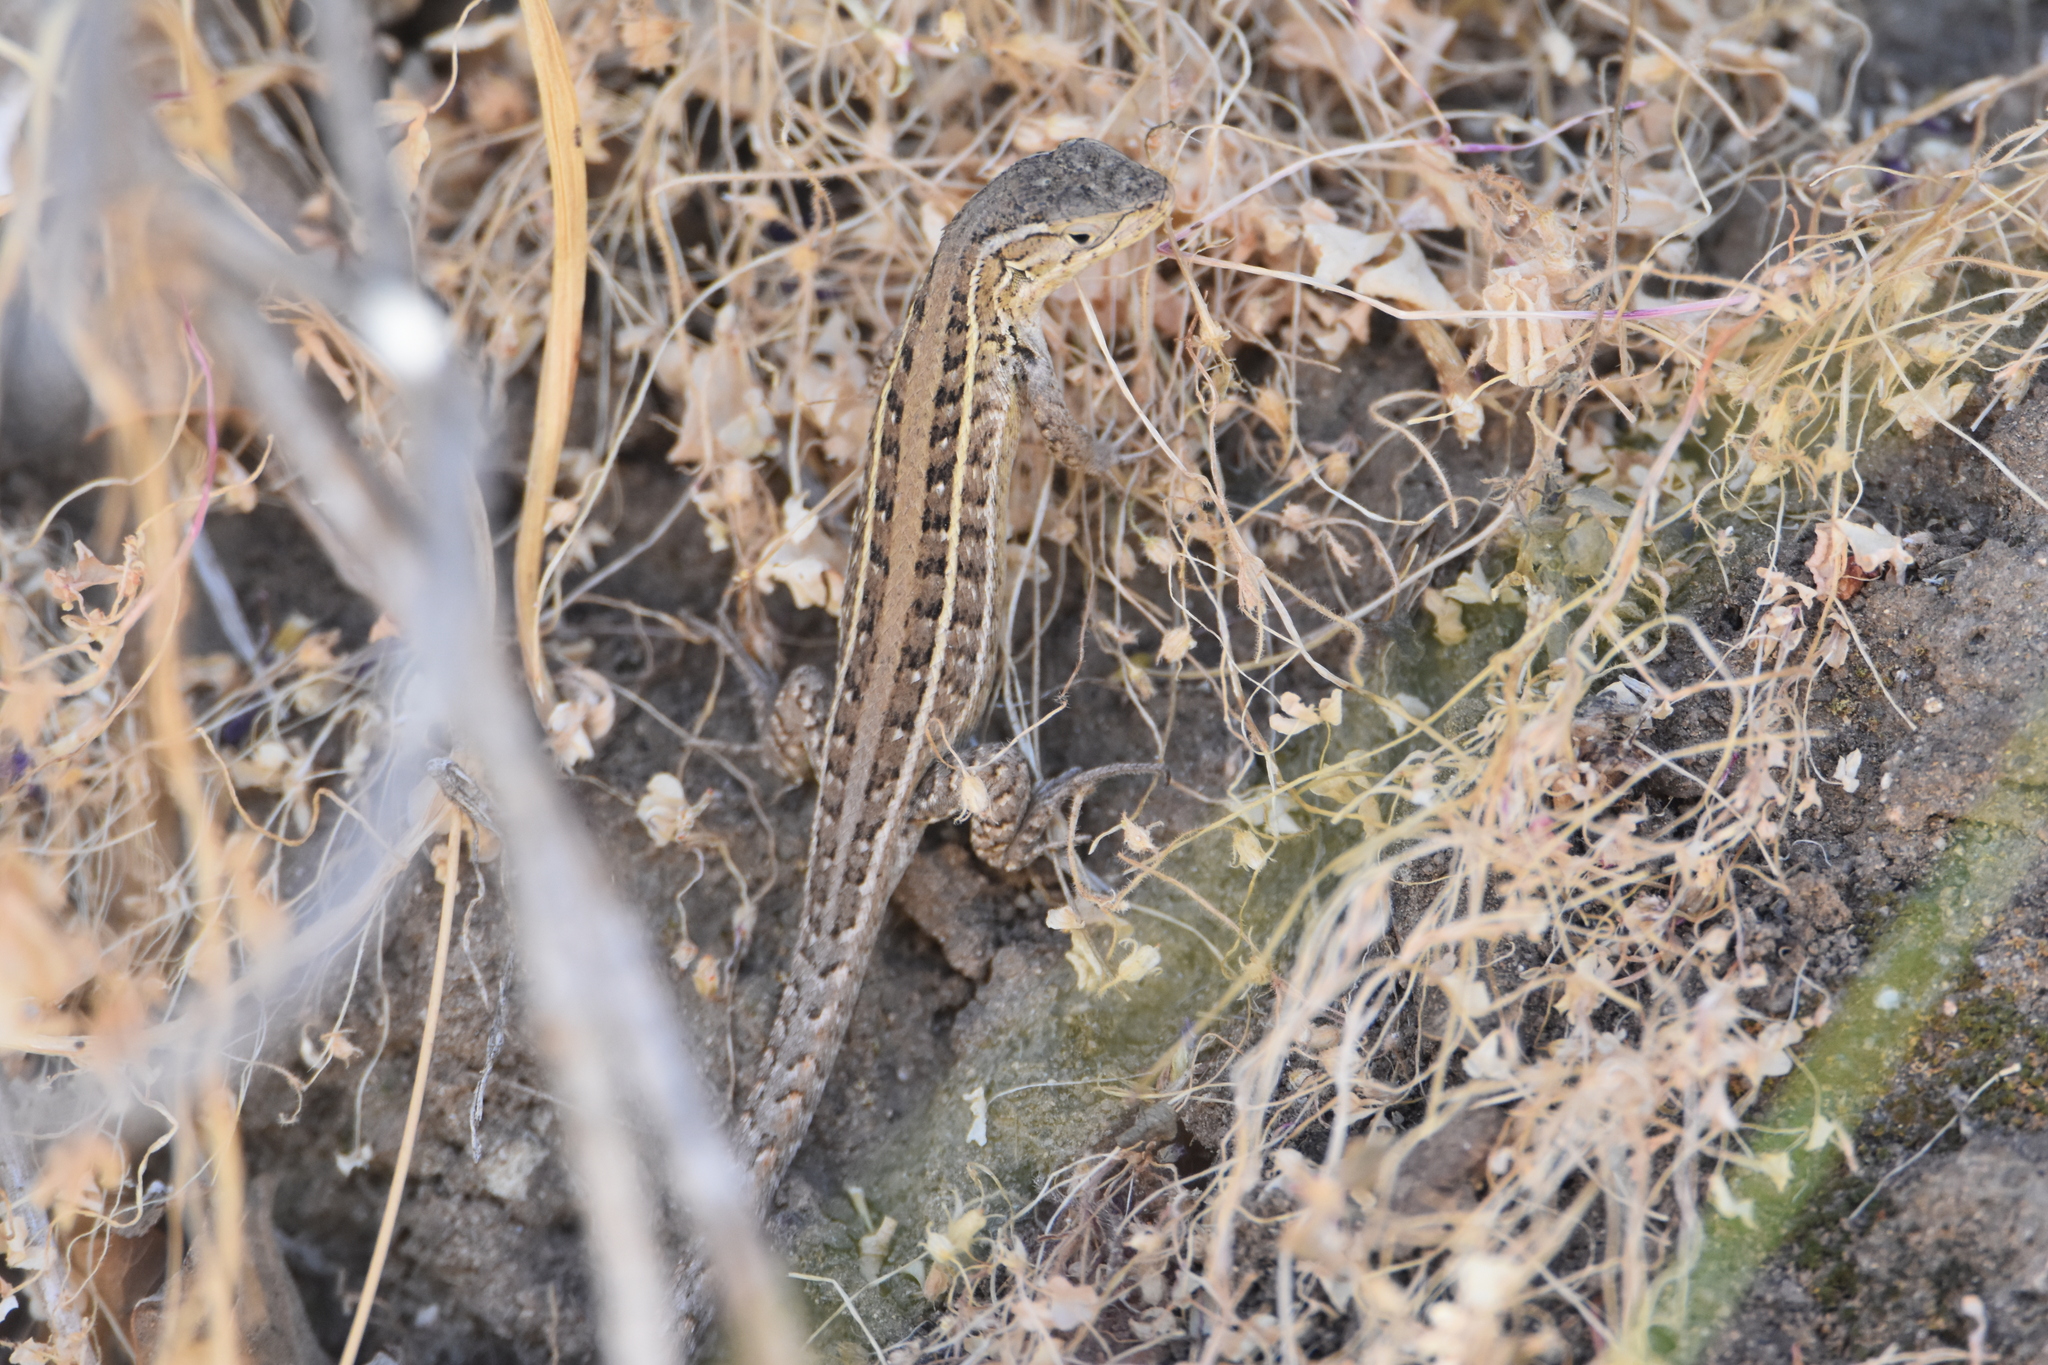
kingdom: Animalia
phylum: Chordata
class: Squamata
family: Liolaemidae
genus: Liolaemus
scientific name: Liolaemus lemniscatus
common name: Wreath tree iguana
